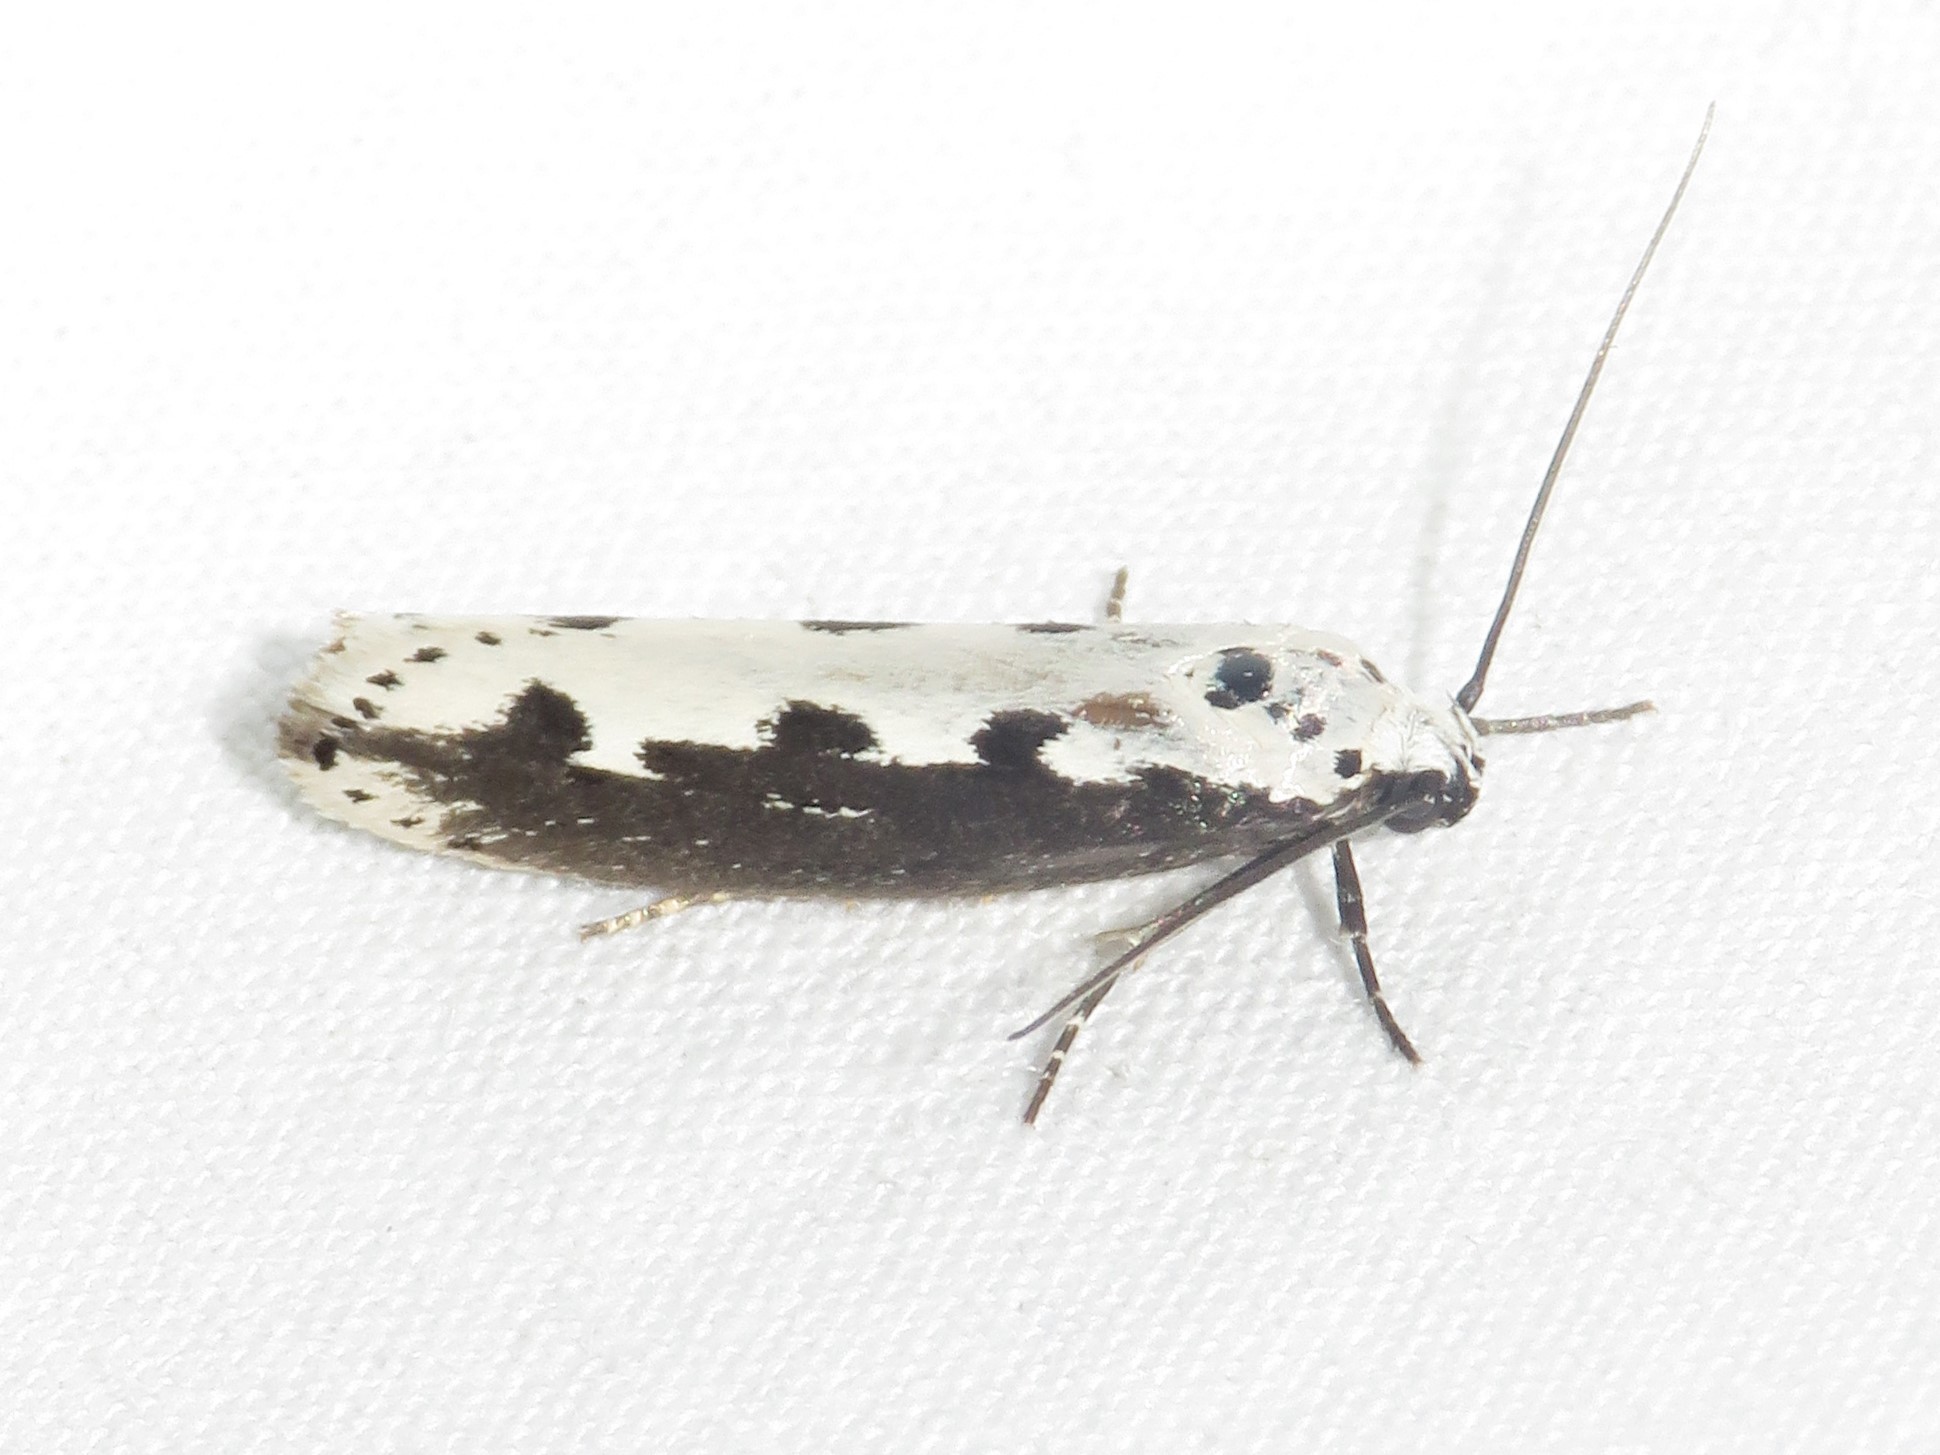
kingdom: Animalia
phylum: Arthropoda
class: Insecta
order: Lepidoptera
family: Ethmiidae
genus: Ethmia
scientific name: Ethmia bipunctella
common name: Bordered ermel
